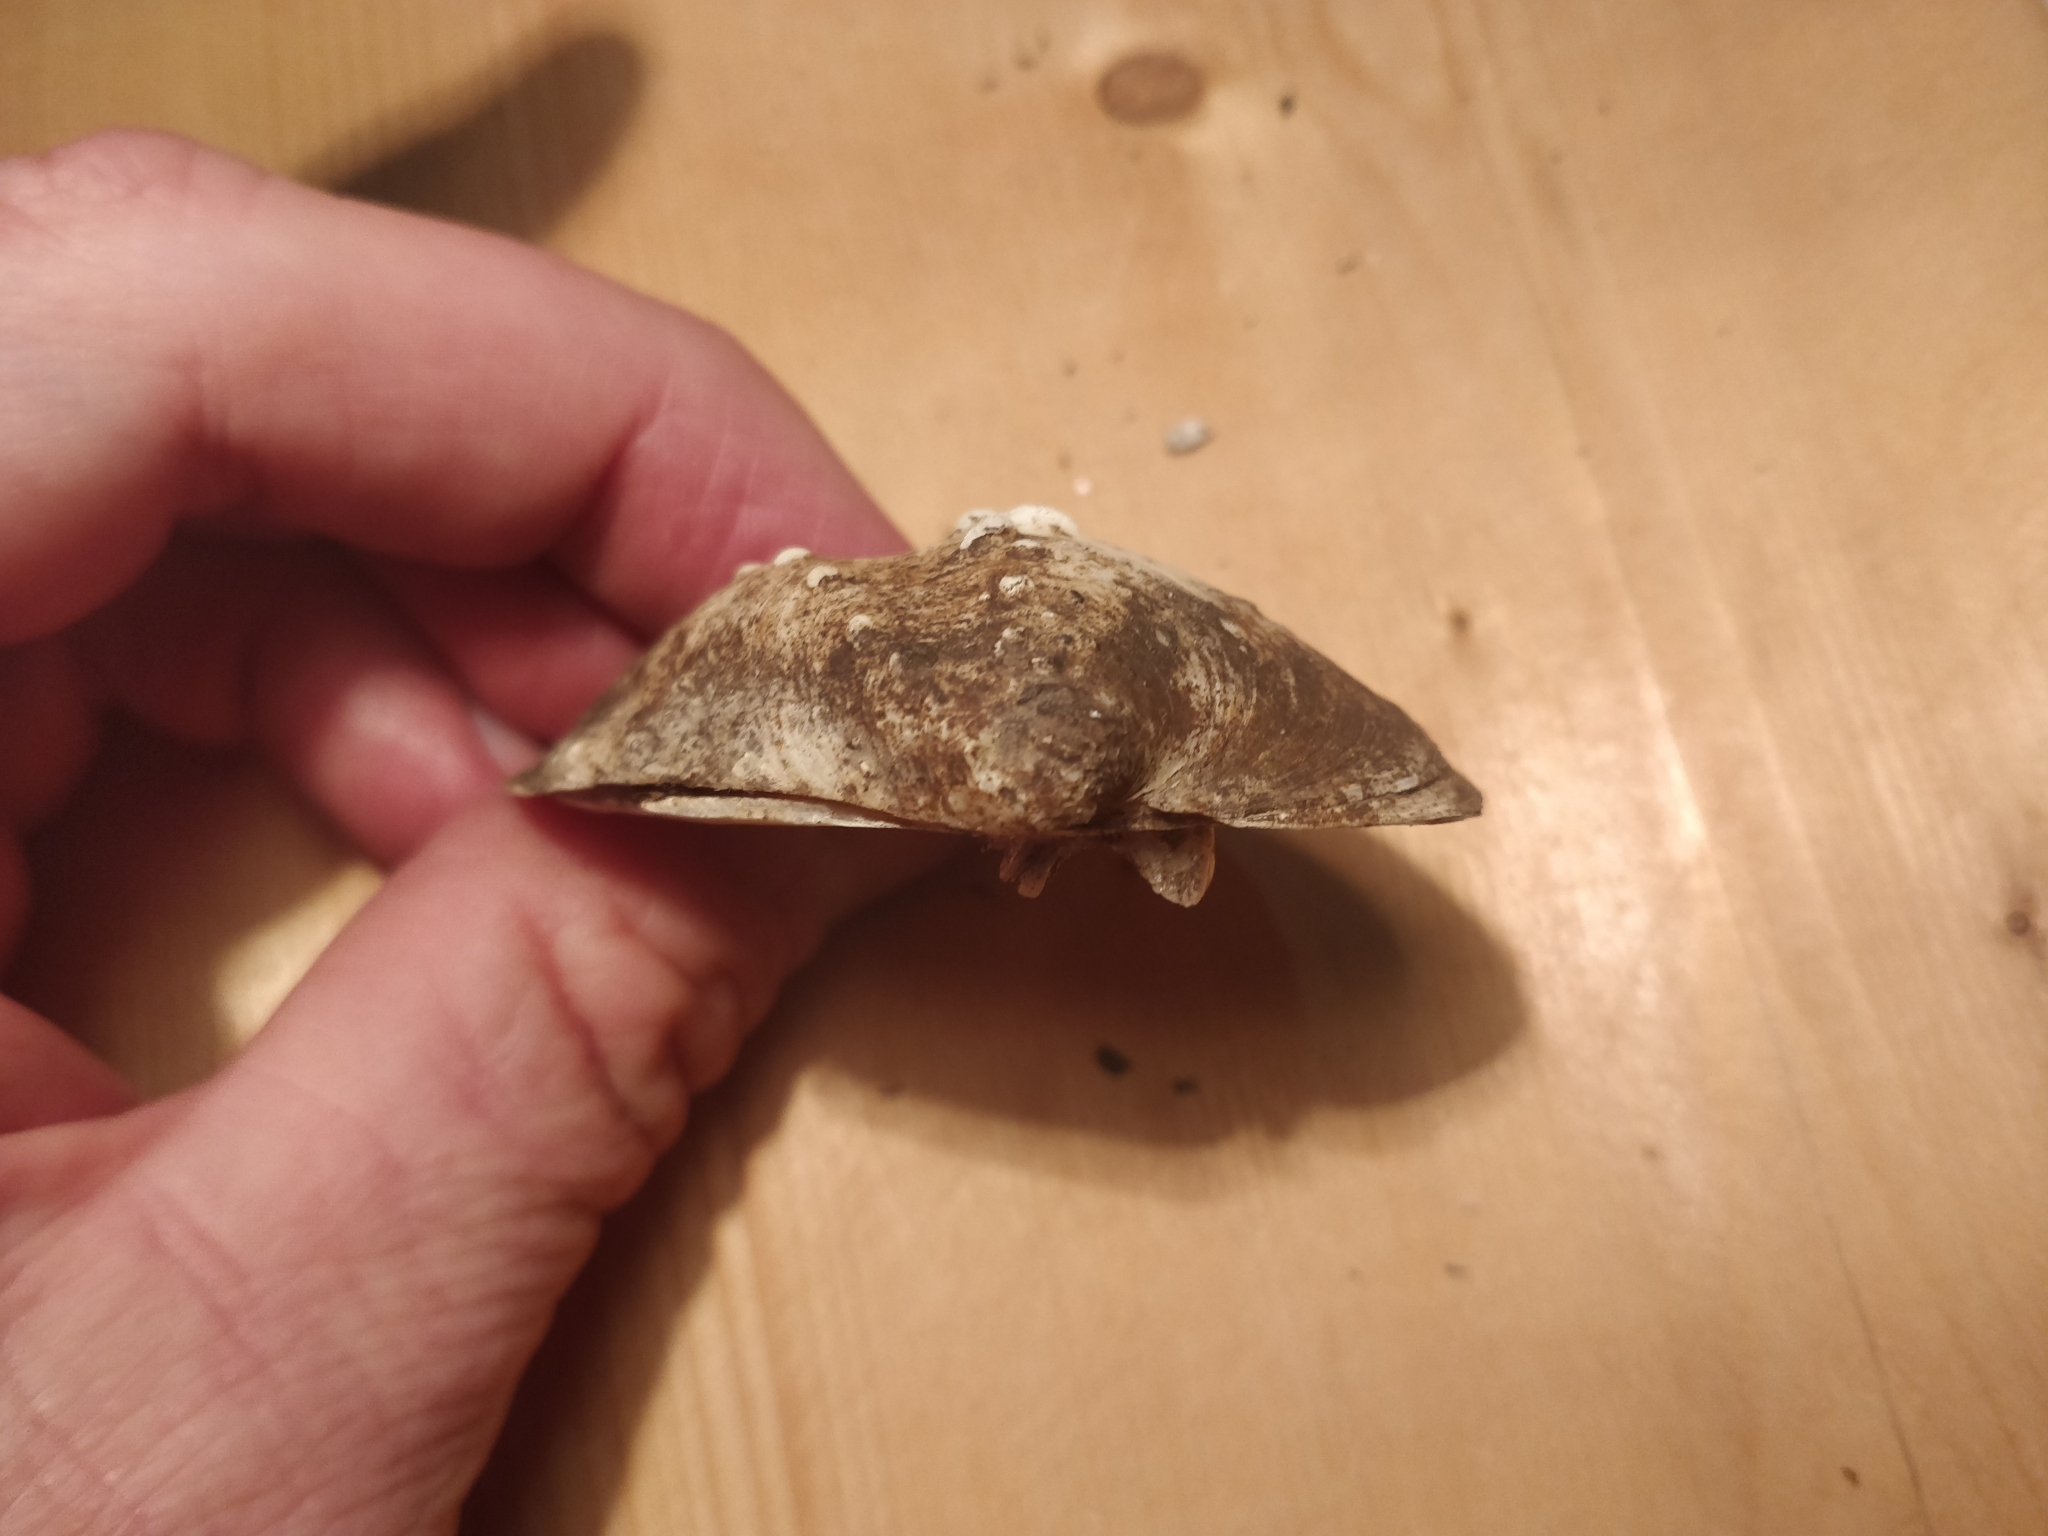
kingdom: Animalia
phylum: Mollusca
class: Bivalvia
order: Unionida
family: Unionidae
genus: Quadrula
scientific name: Quadrula quadrula
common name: Mapleleaf
